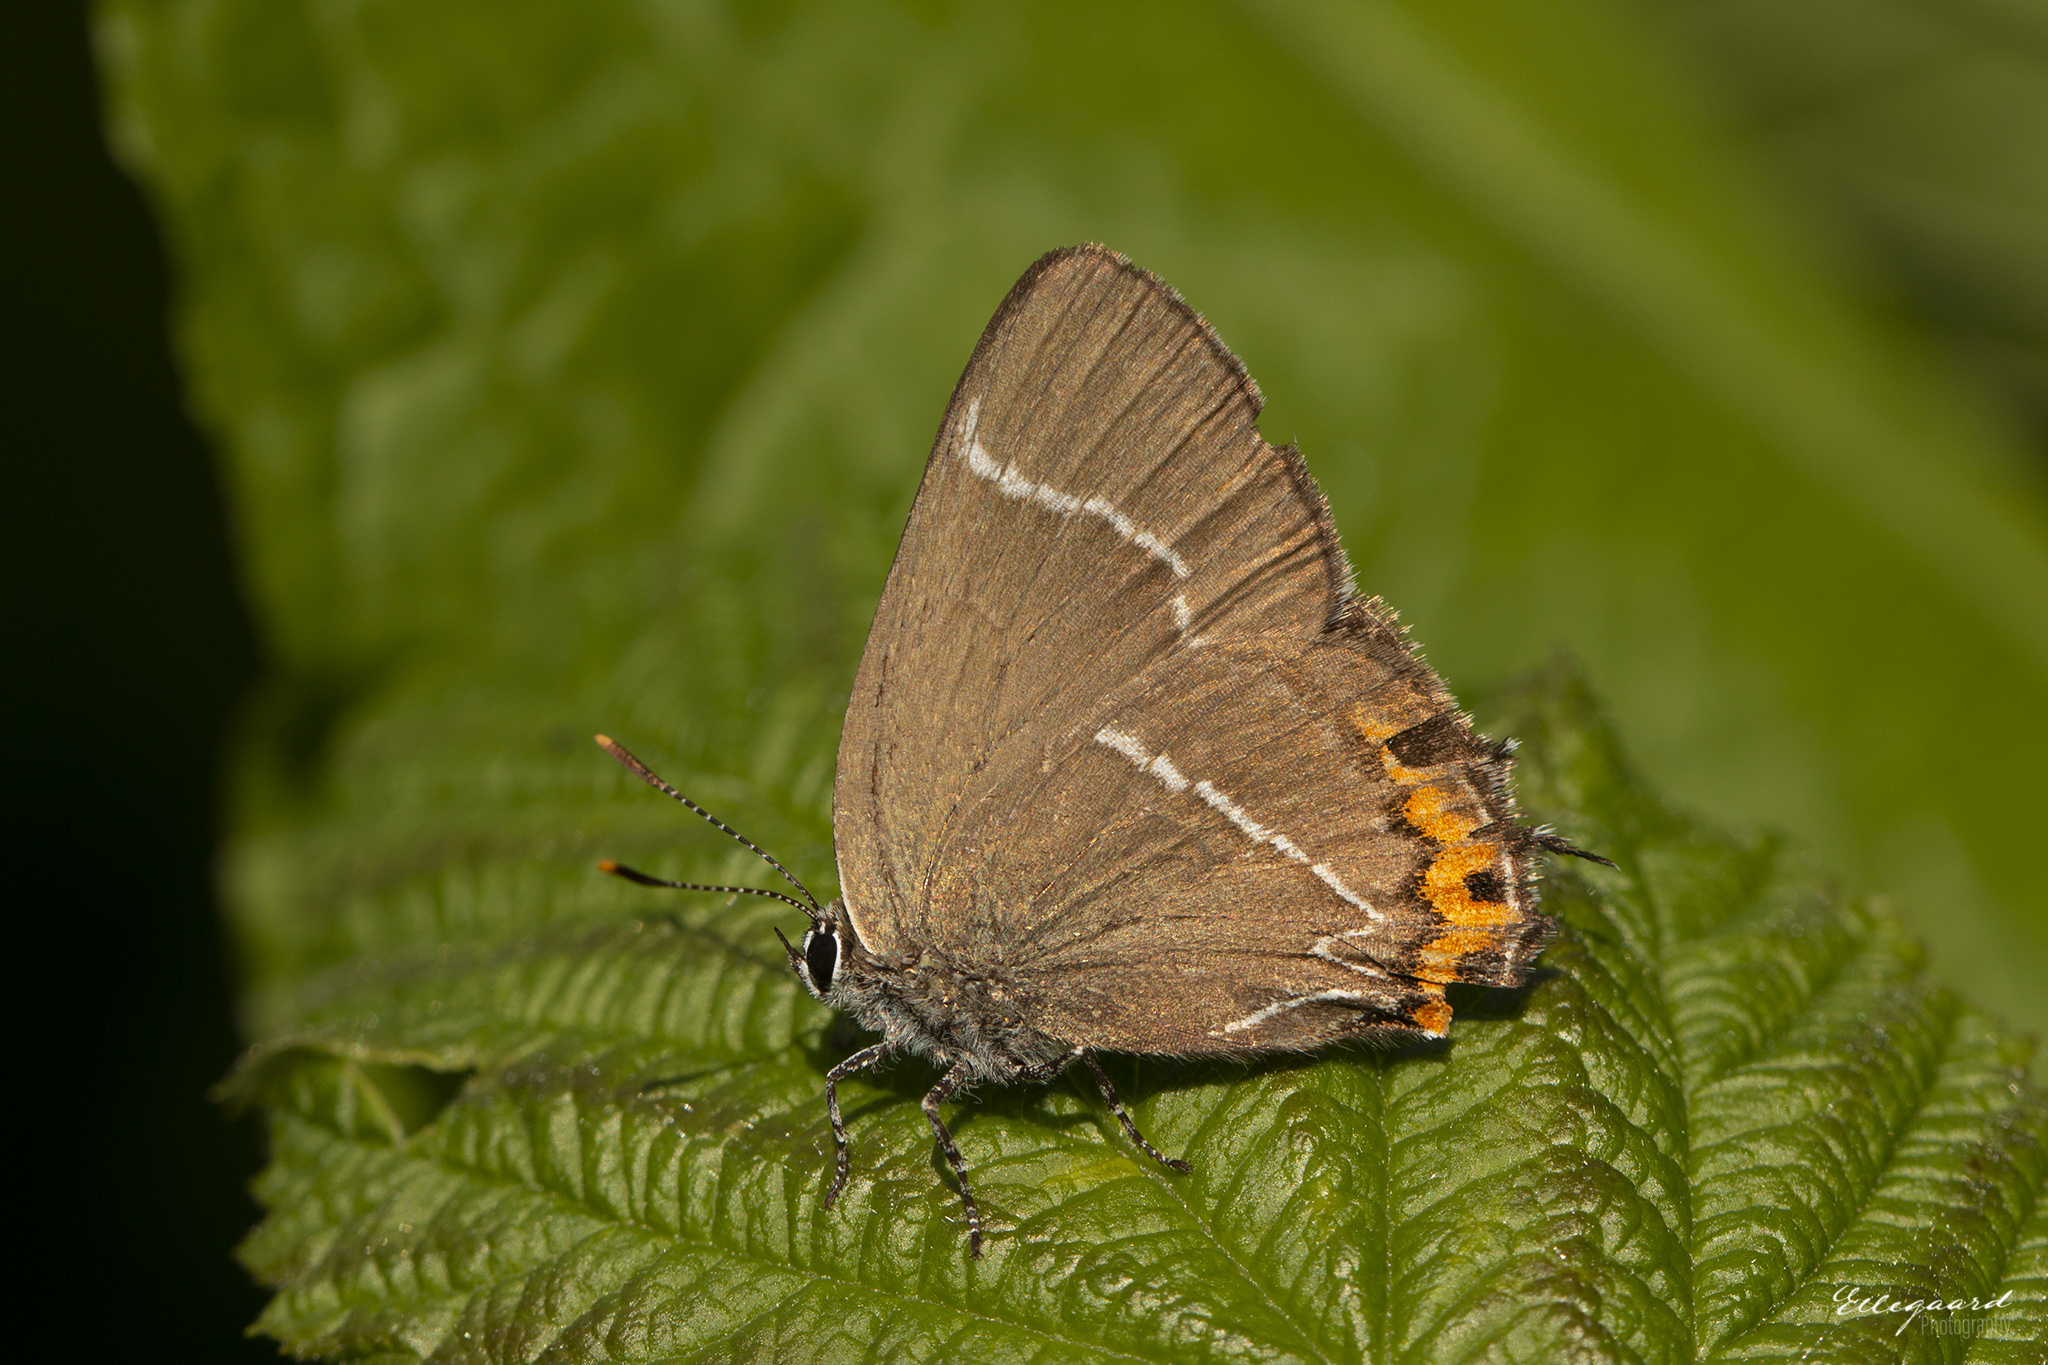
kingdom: Animalia
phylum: Arthropoda
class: Insecta
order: Lepidoptera
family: Lycaenidae
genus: Satyrium
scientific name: Satyrium w-album
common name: White-letter hairstreak
